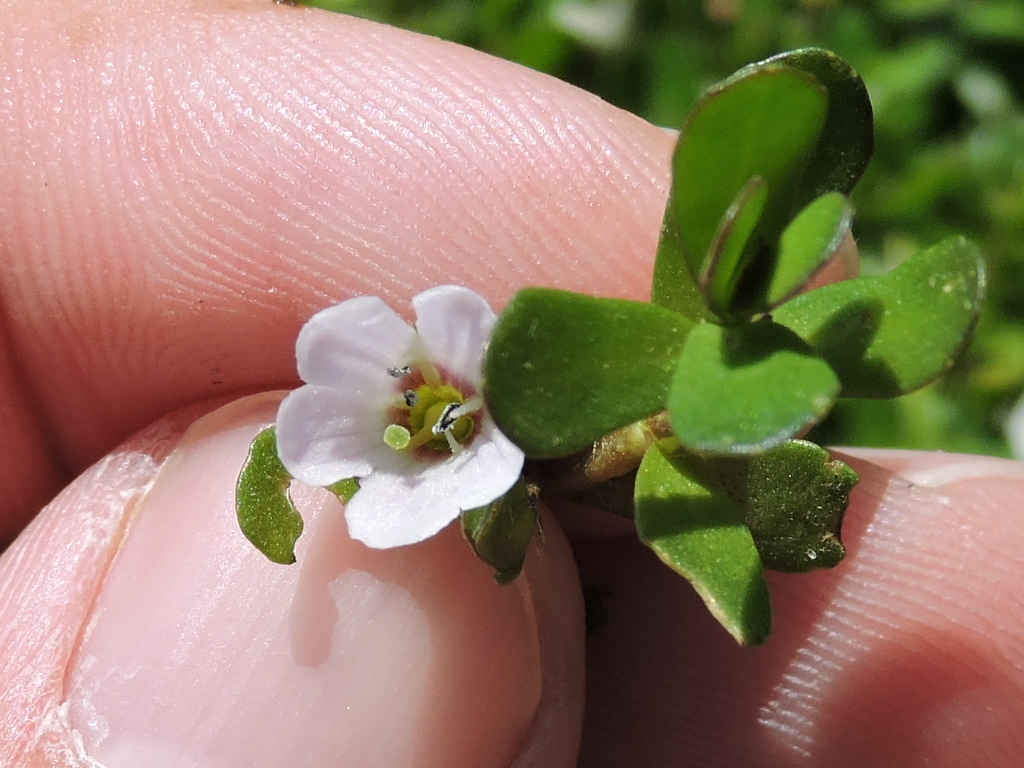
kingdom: Plantae
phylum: Tracheophyta
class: Magnoliopsida
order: Lamiales
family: Plantaginaceae
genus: Bacopa
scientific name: Bacopa monnieri
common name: Indian-pennywort
